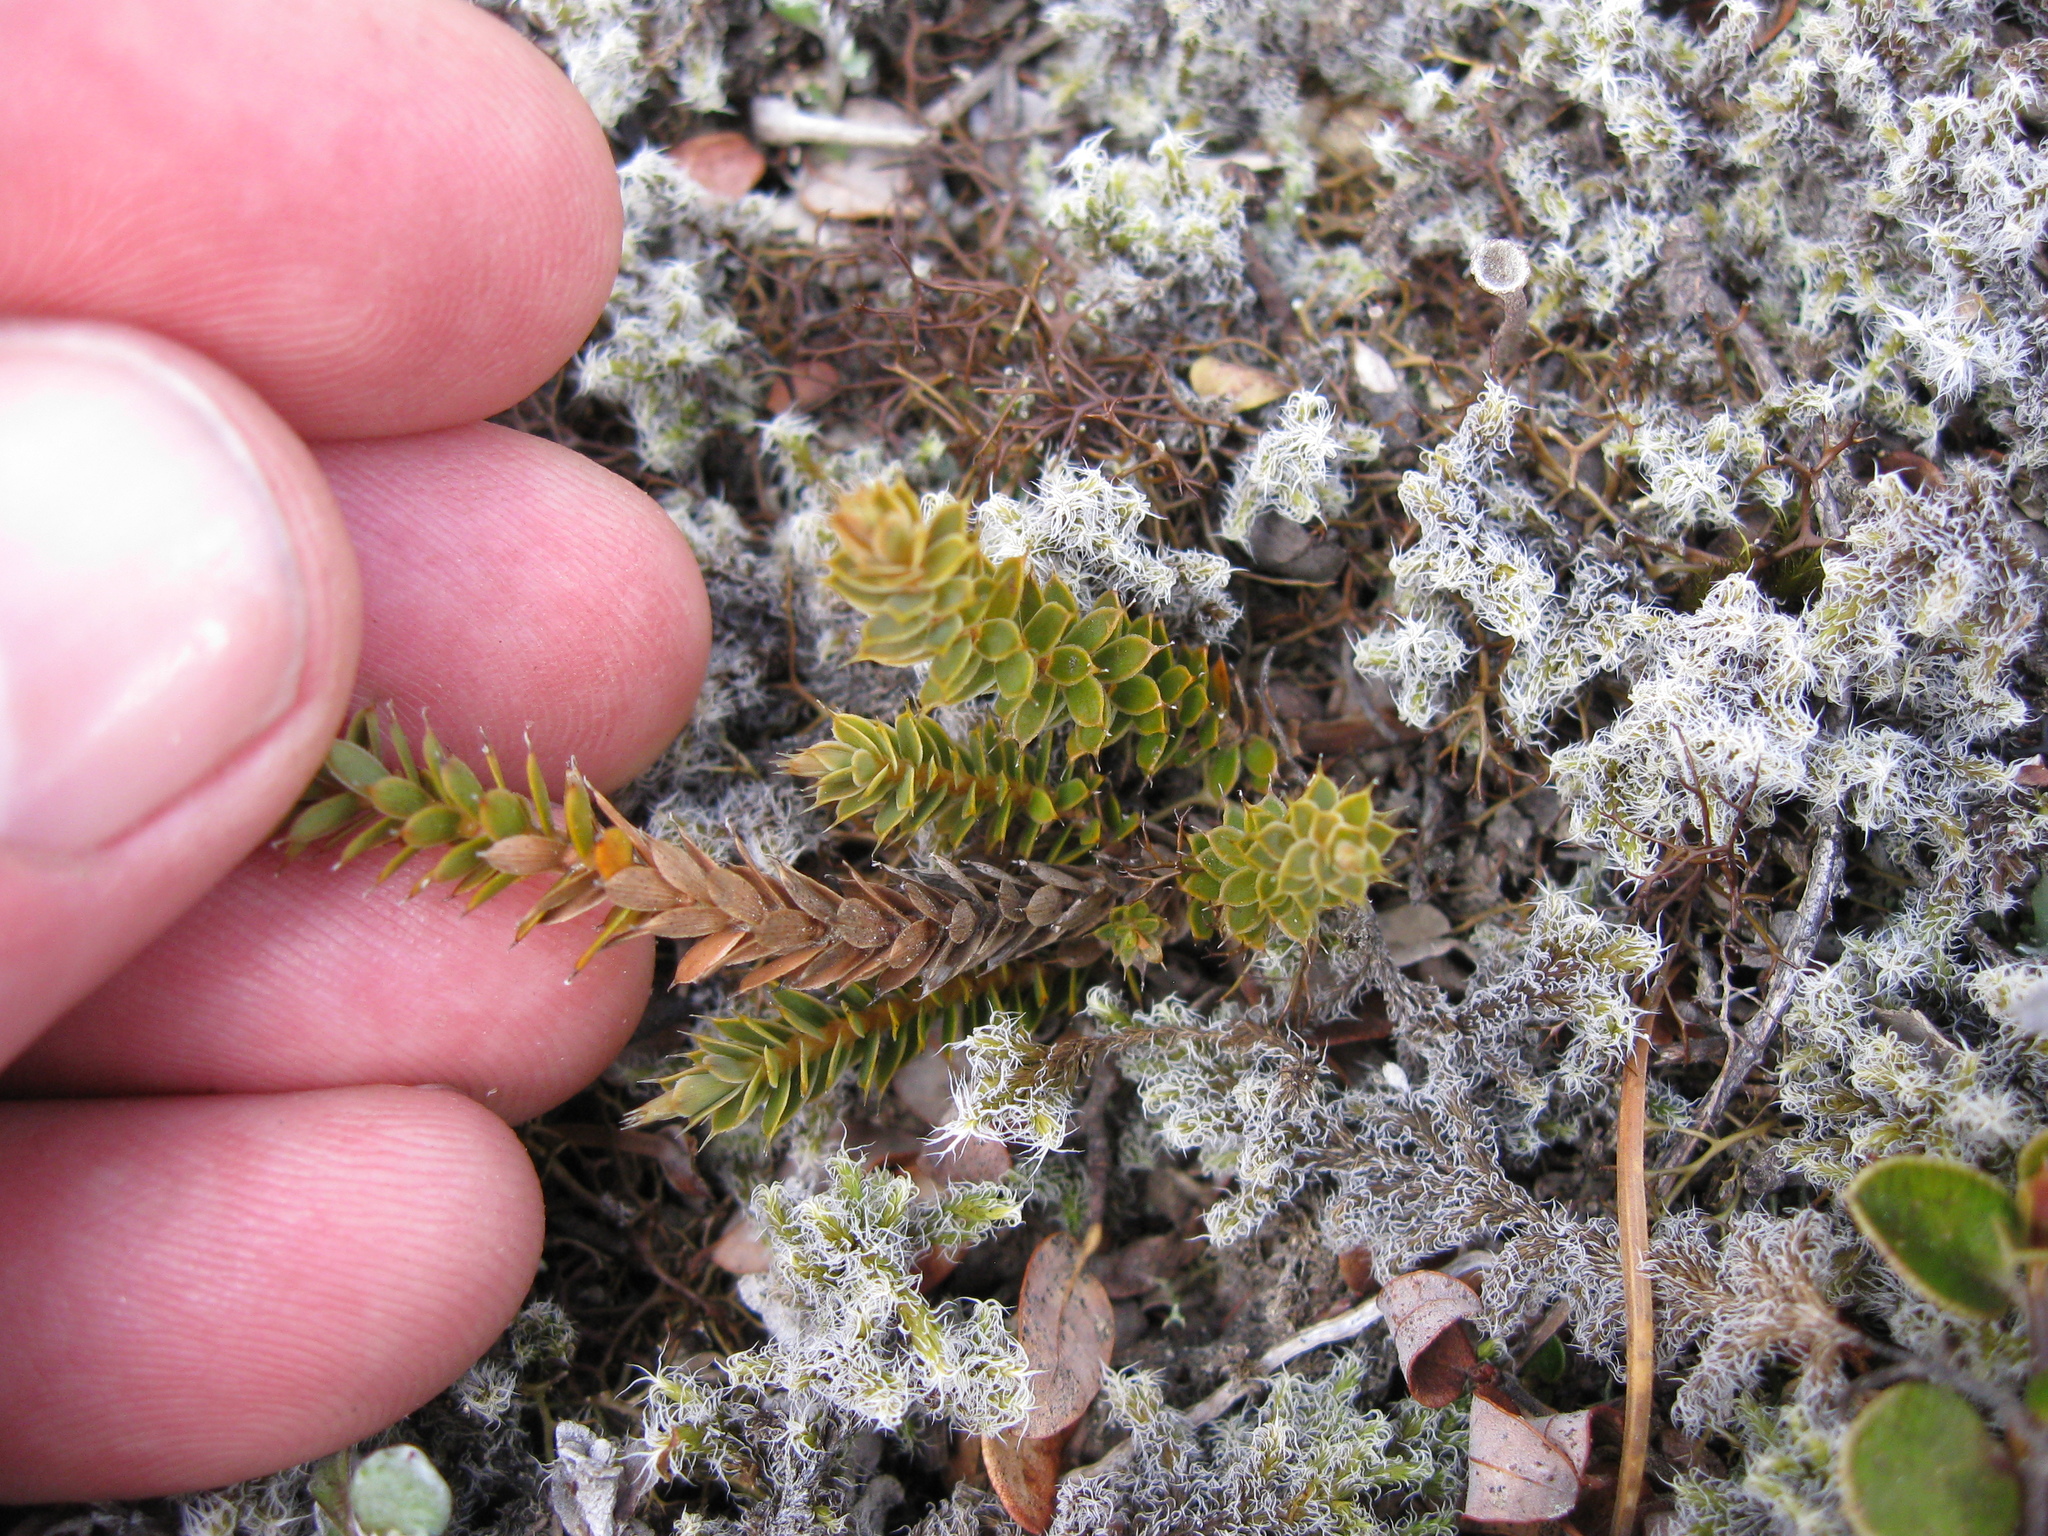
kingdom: Plantae
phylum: Tracheophyta
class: Magnoliopsida
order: Ericales
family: Ericaceae
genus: Styphelia
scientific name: Styphelia nesophila
